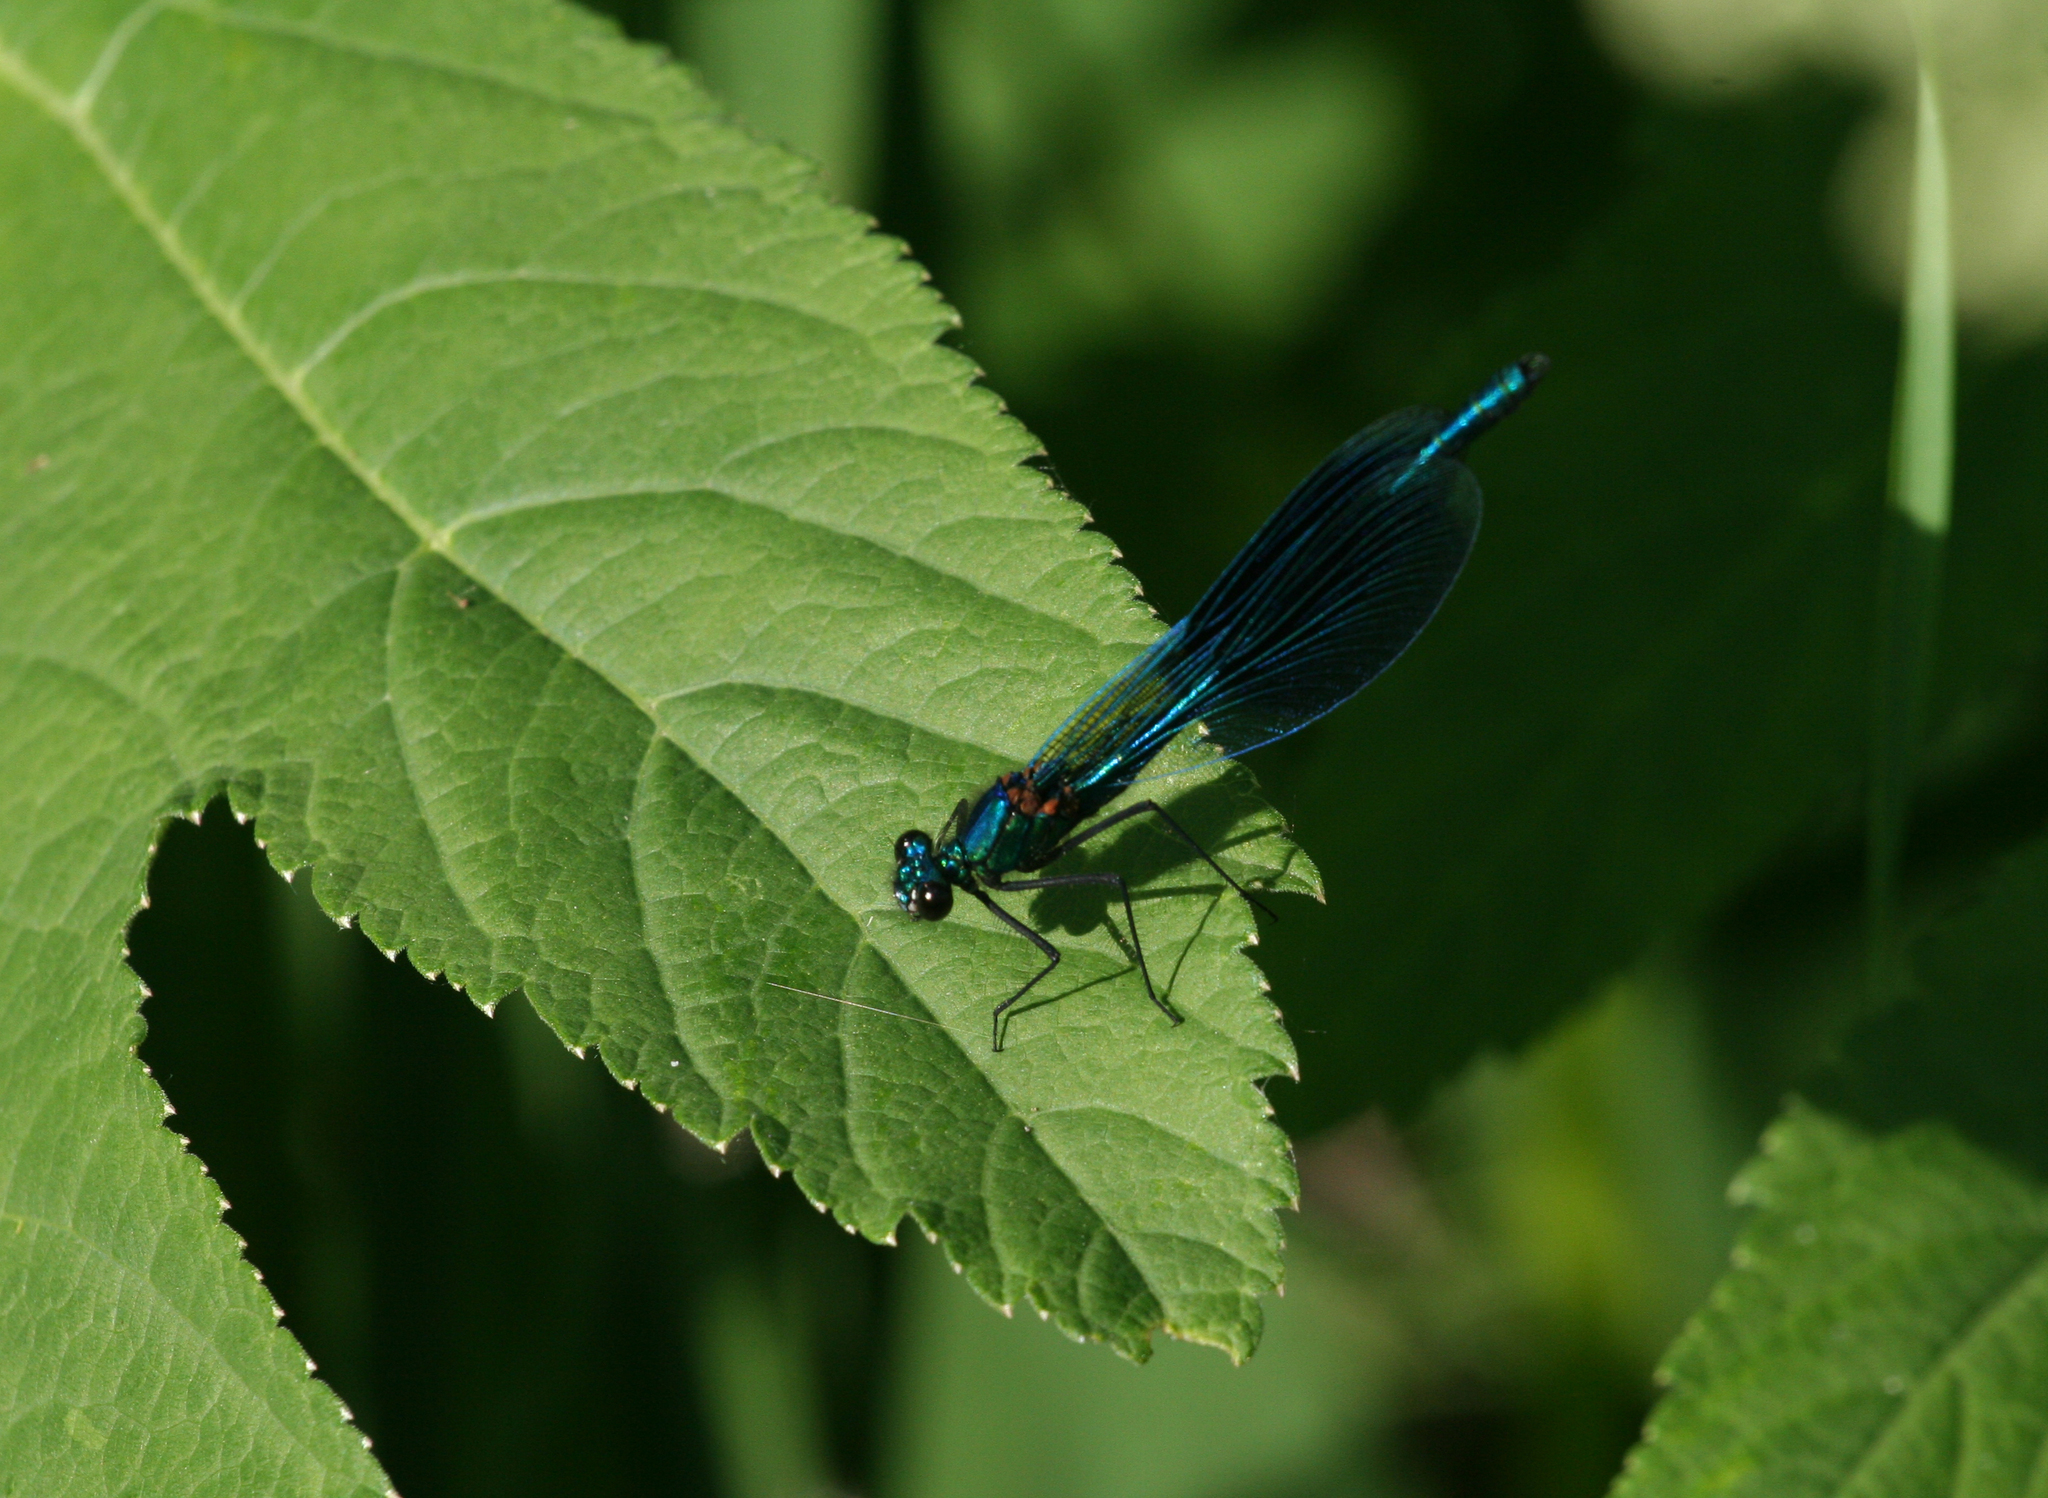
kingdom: Animalia
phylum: Arthropoda
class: Insecta
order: Odonata
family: Calopterygidae
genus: Calopteryx
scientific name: Calopteryx splendens
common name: Banded demoiselle
